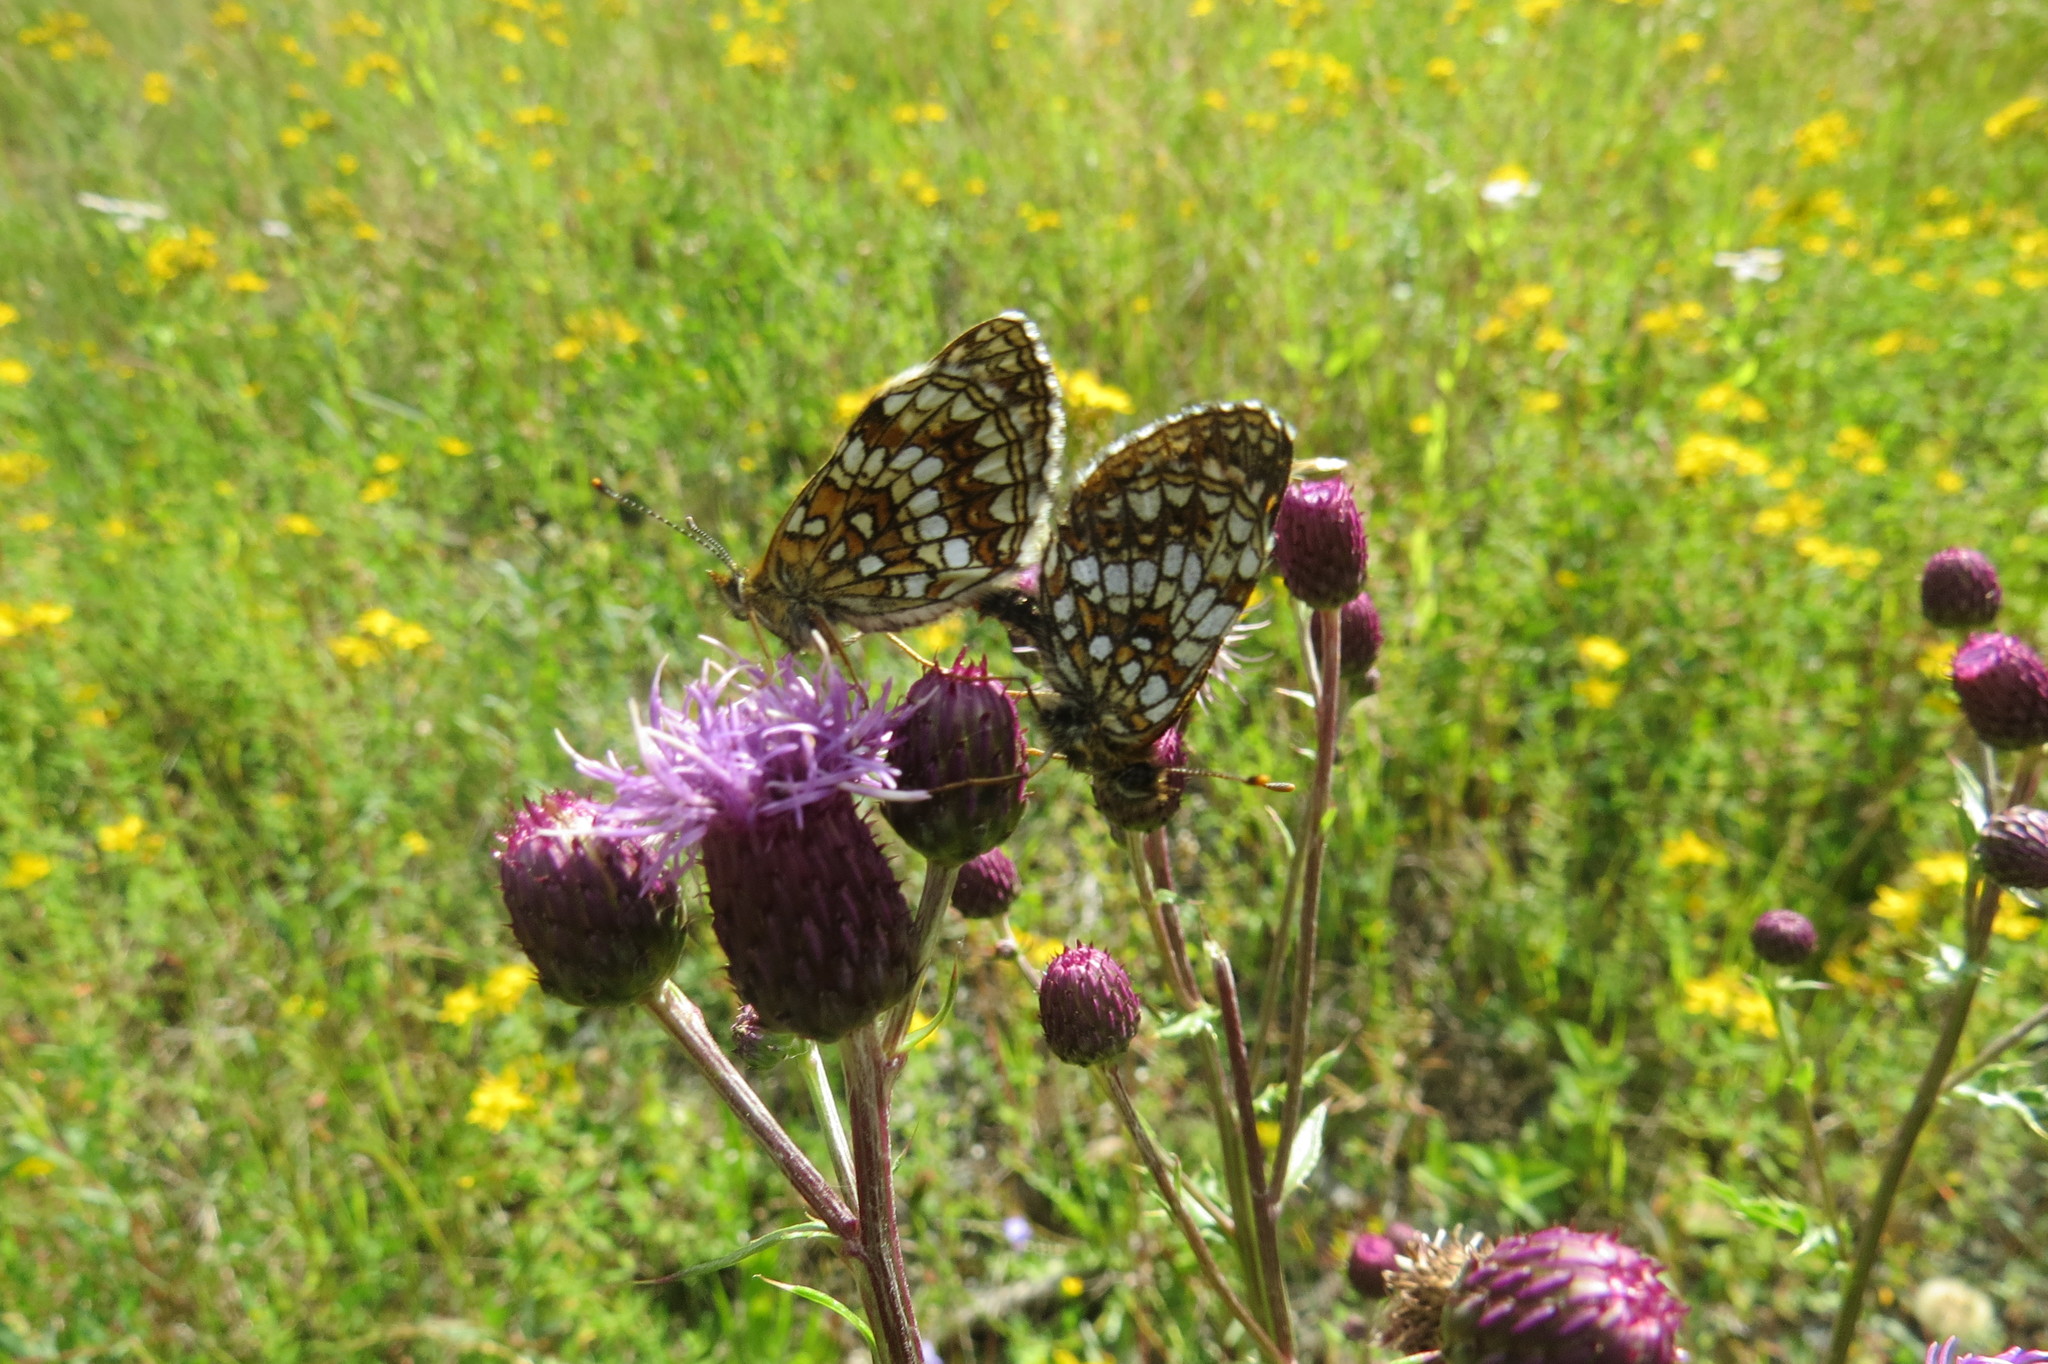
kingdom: Animalia
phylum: Arthropoda
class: Insecta
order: Lepidoptera
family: Nymphalidae
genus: Melitaea
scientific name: Melitaea diamina
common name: False heath fritillary
